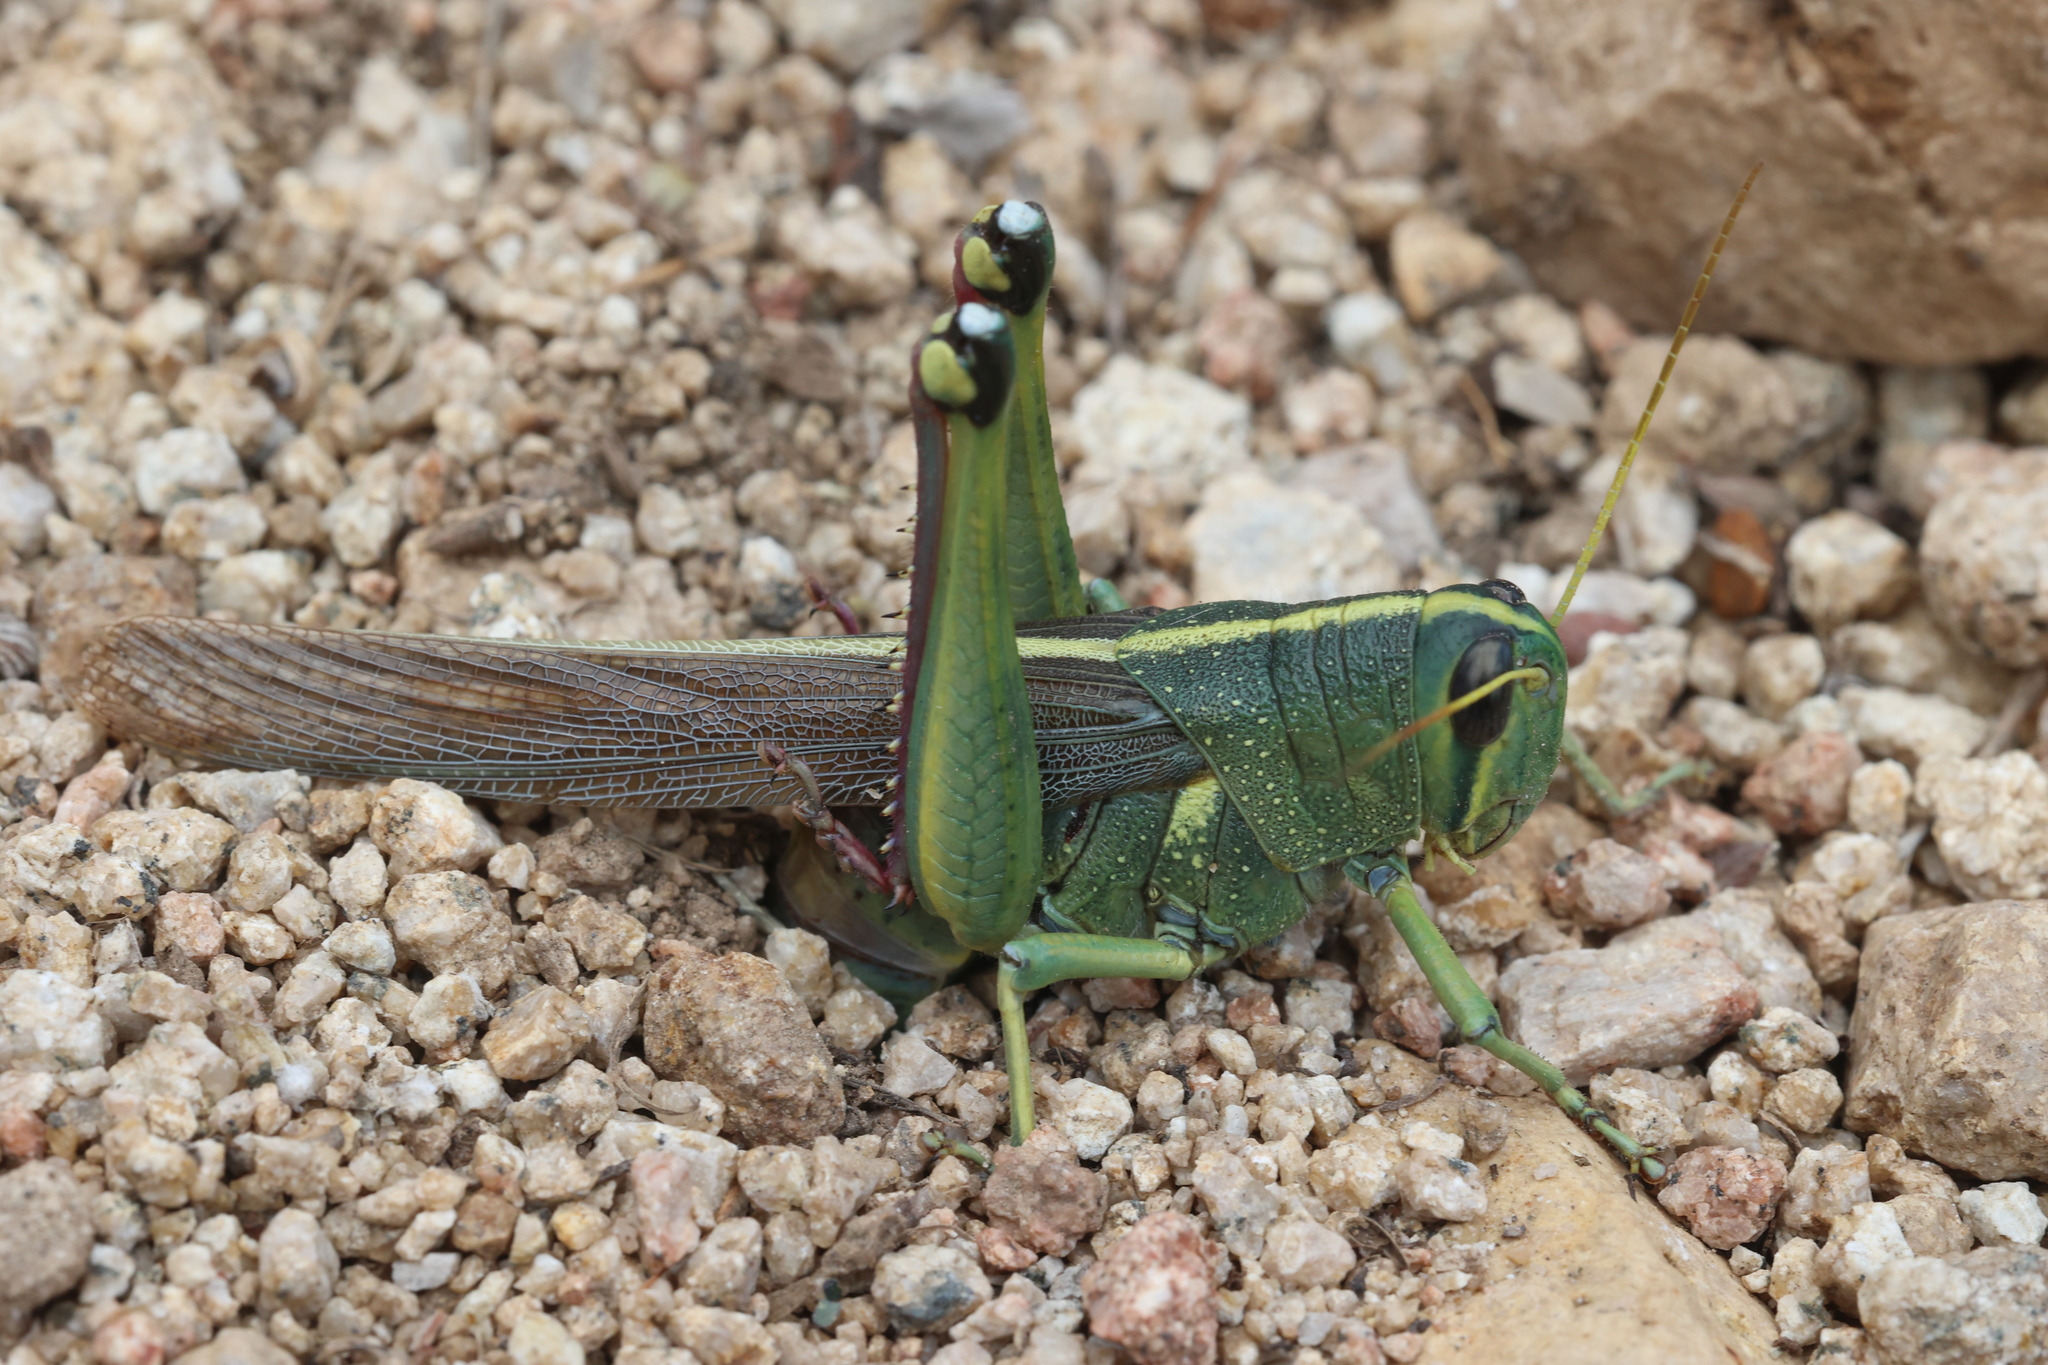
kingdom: Animalia
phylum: Arthropoda
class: Insecta
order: Orthoptera
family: Acrididae
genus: Schistocerca
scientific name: Schistocerca lineata
